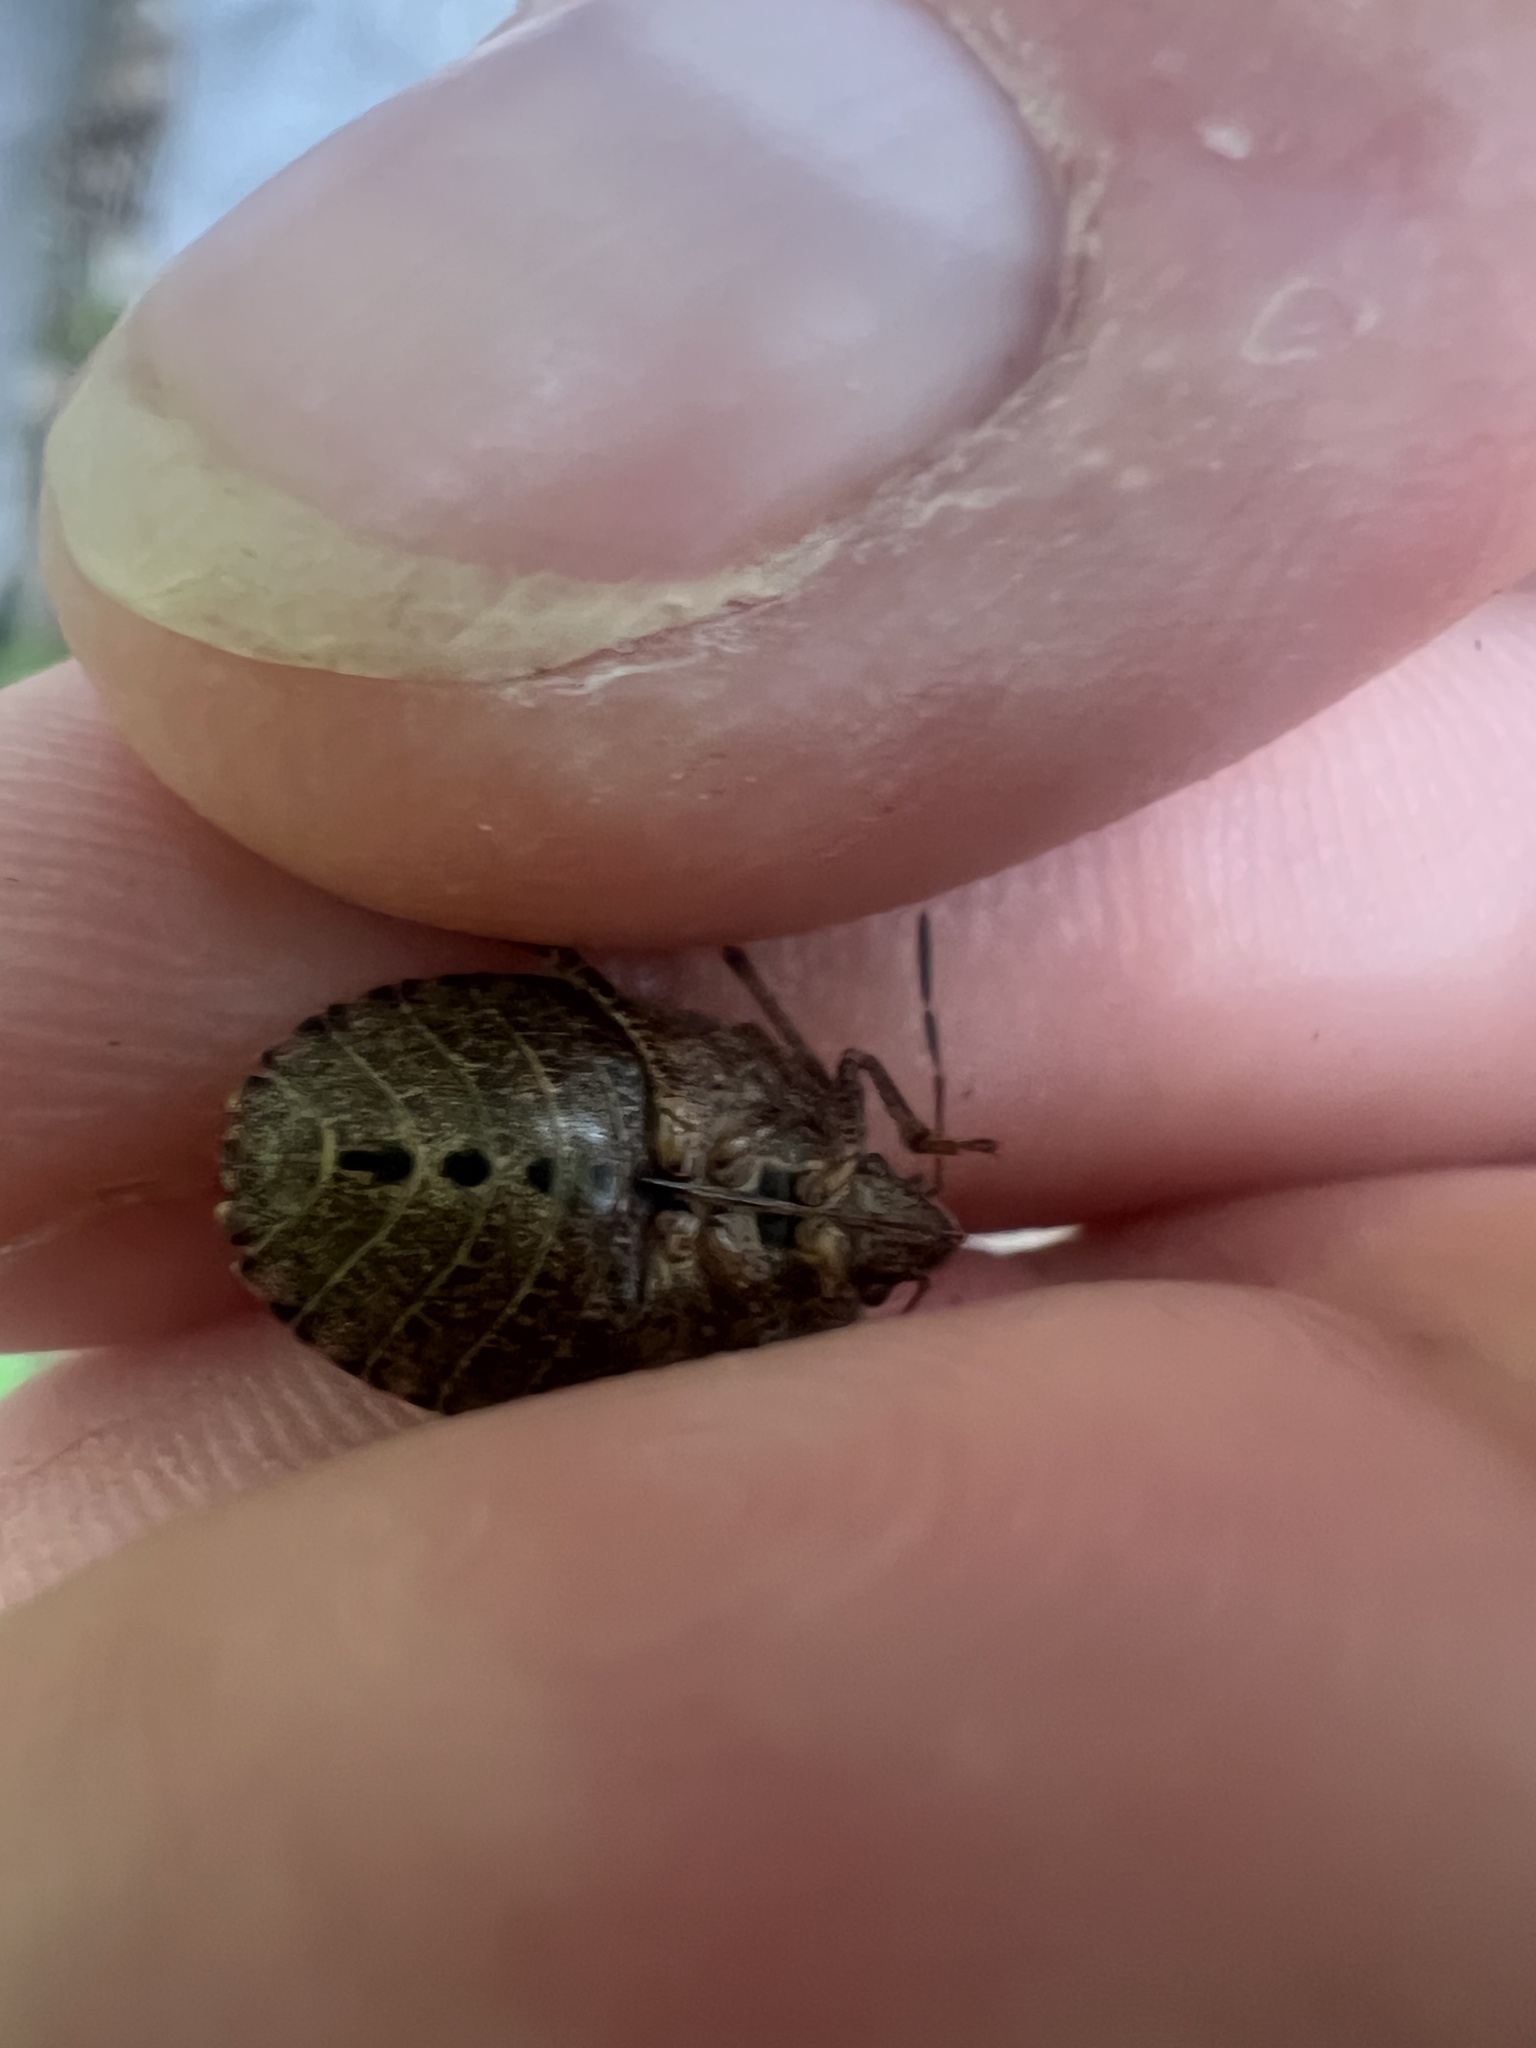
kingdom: Animalia
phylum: Arthropoda
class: Insecta
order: Hemiptera
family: Pentatomidae
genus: Menecles
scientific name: Menecles insertus
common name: Elf shoe stink bug
